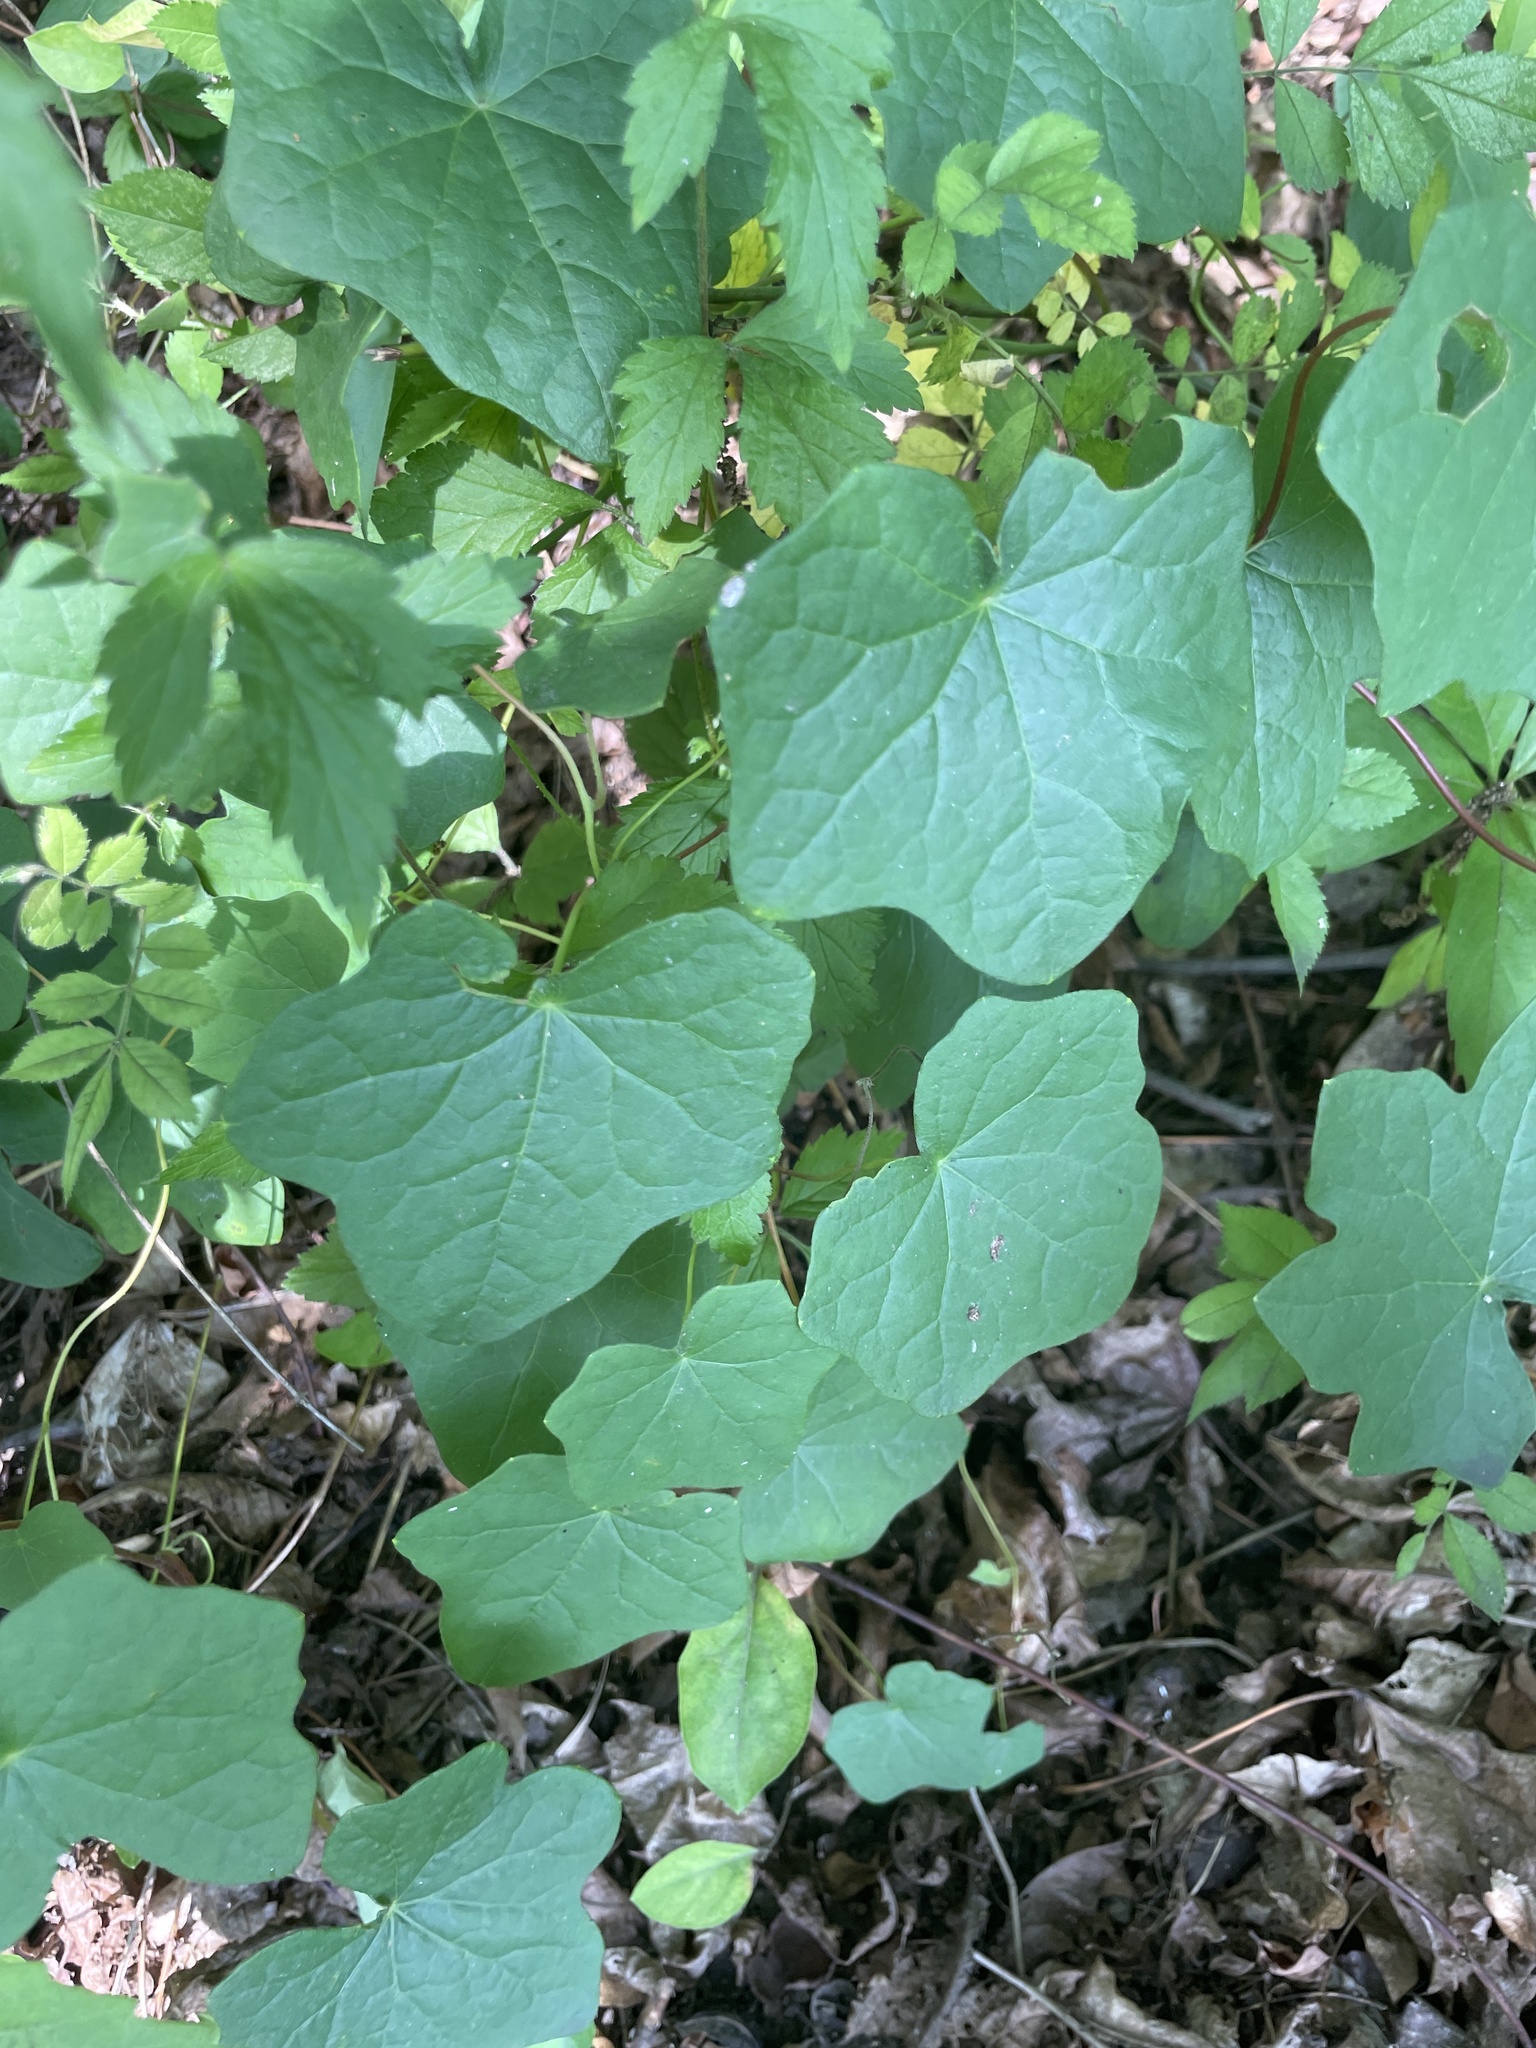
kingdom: Plantae
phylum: Tracheophyta
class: Magnoliopsida
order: Ranunculales
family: Menispermaceae
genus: Menispermum
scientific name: Menispermum canadense
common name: Moonseed
